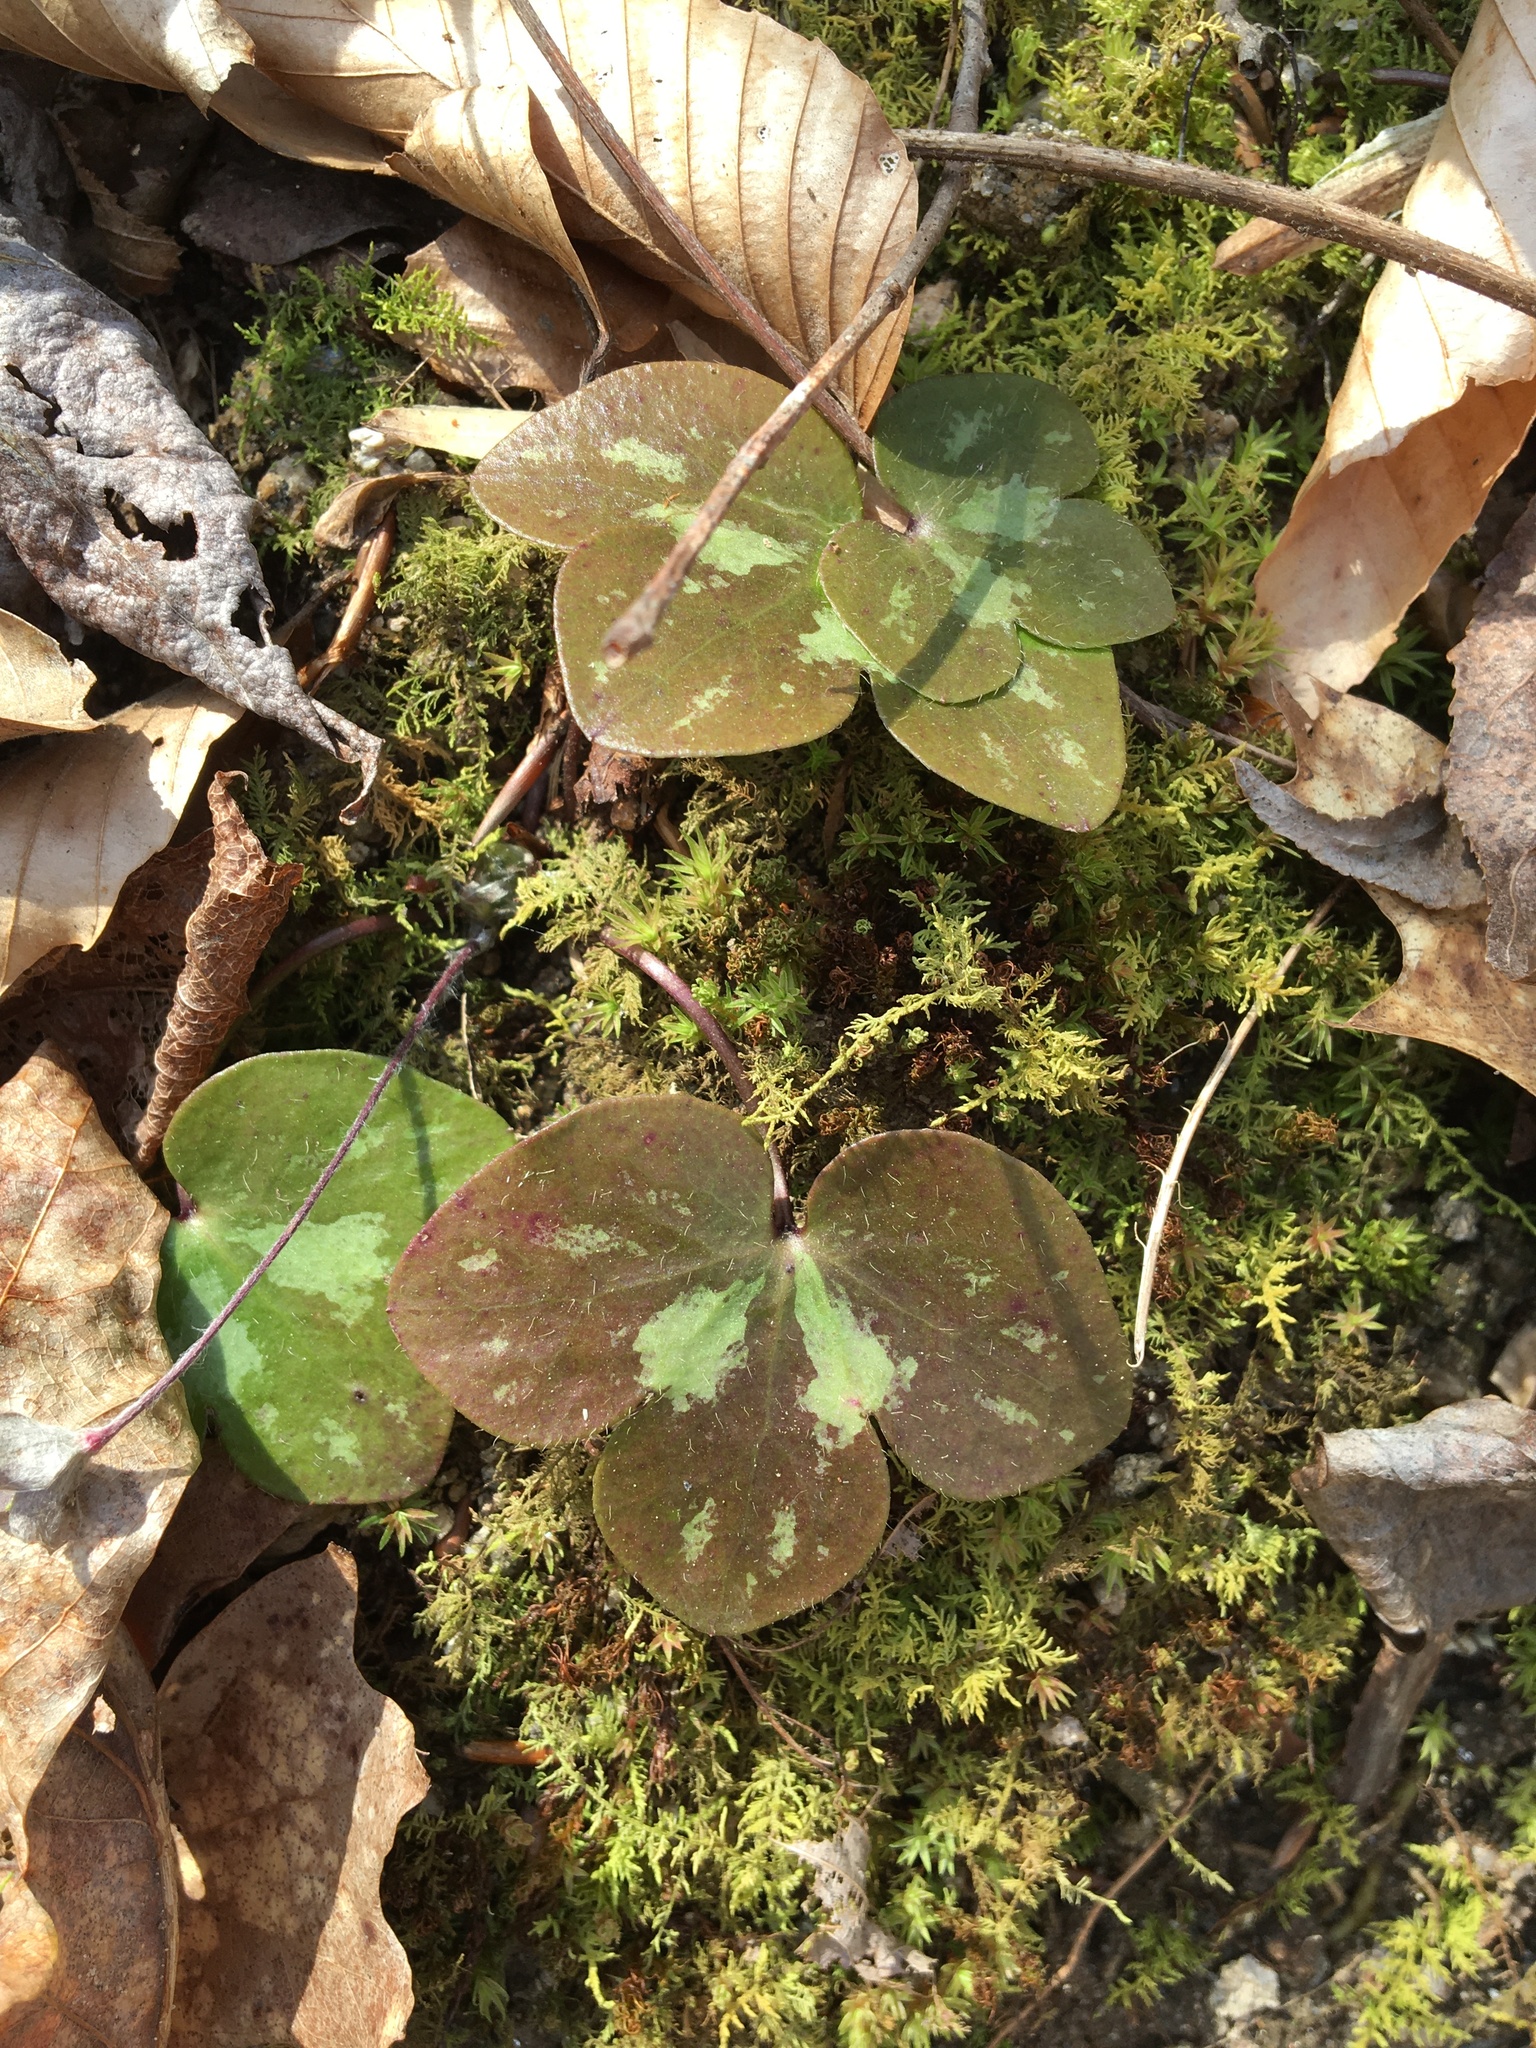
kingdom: Plantae
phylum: Tracheophyta
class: Magnoliopsida
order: Ranunculales
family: Ranunculaceae
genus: Hepatica
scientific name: Hepatica americana
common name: American hepatica
